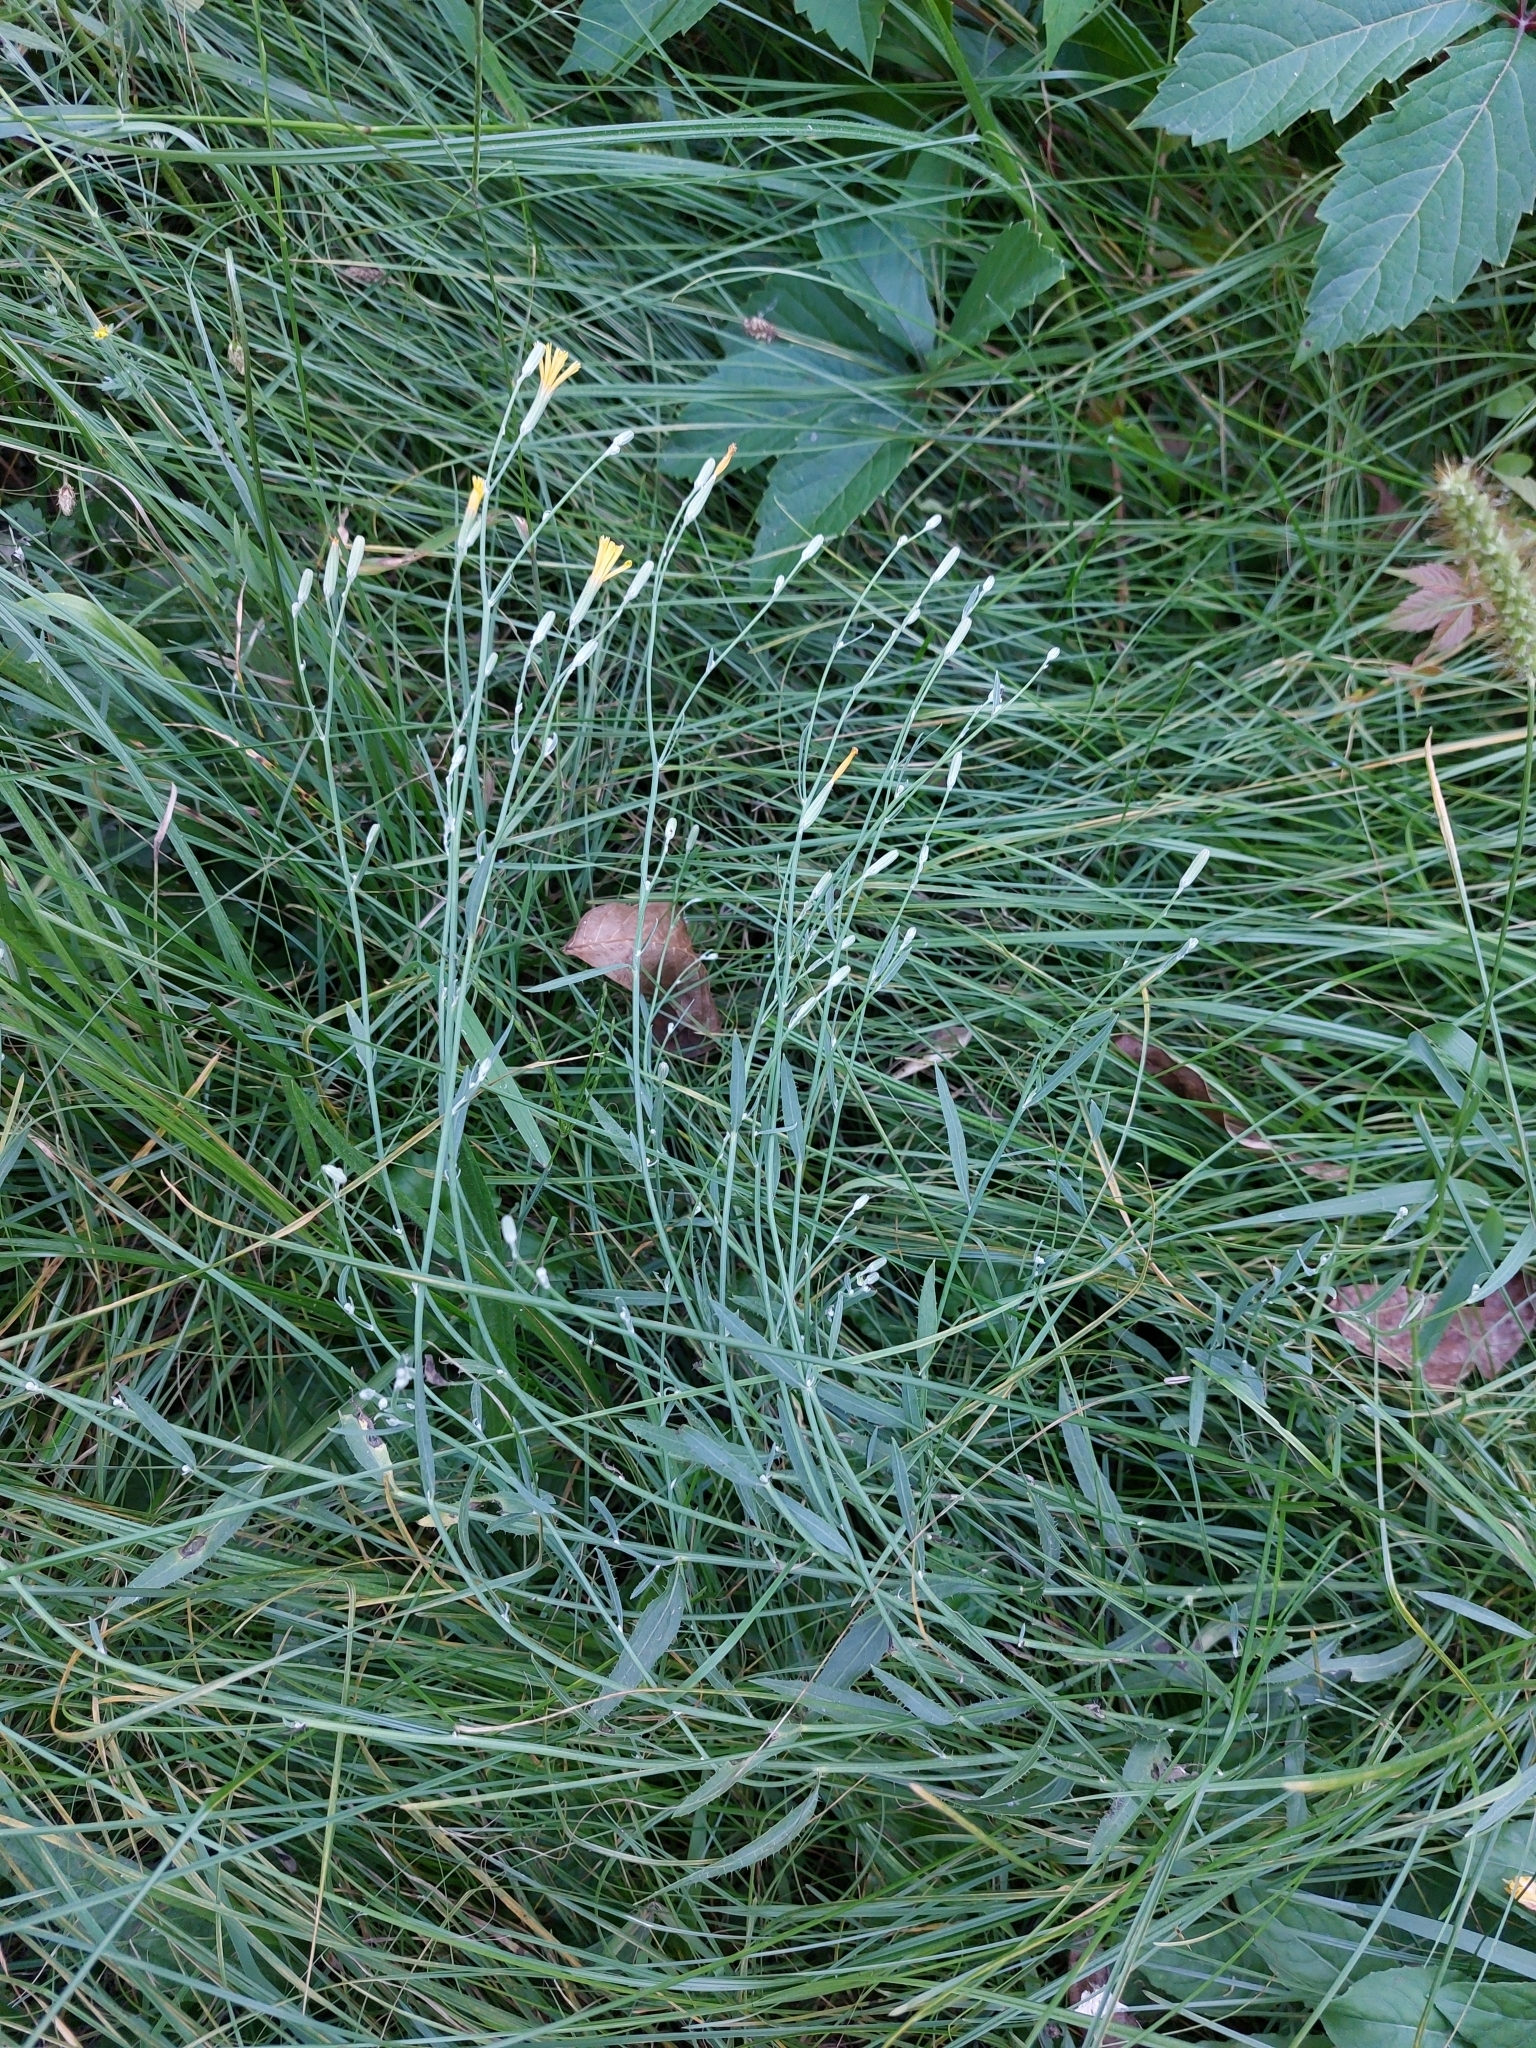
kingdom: Plantae
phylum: Tracheophyta
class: Magnoliopsida
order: Asterales
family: Asteraceae
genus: Chondrilla
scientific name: Chondrilla juncea
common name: Skeleton weed
